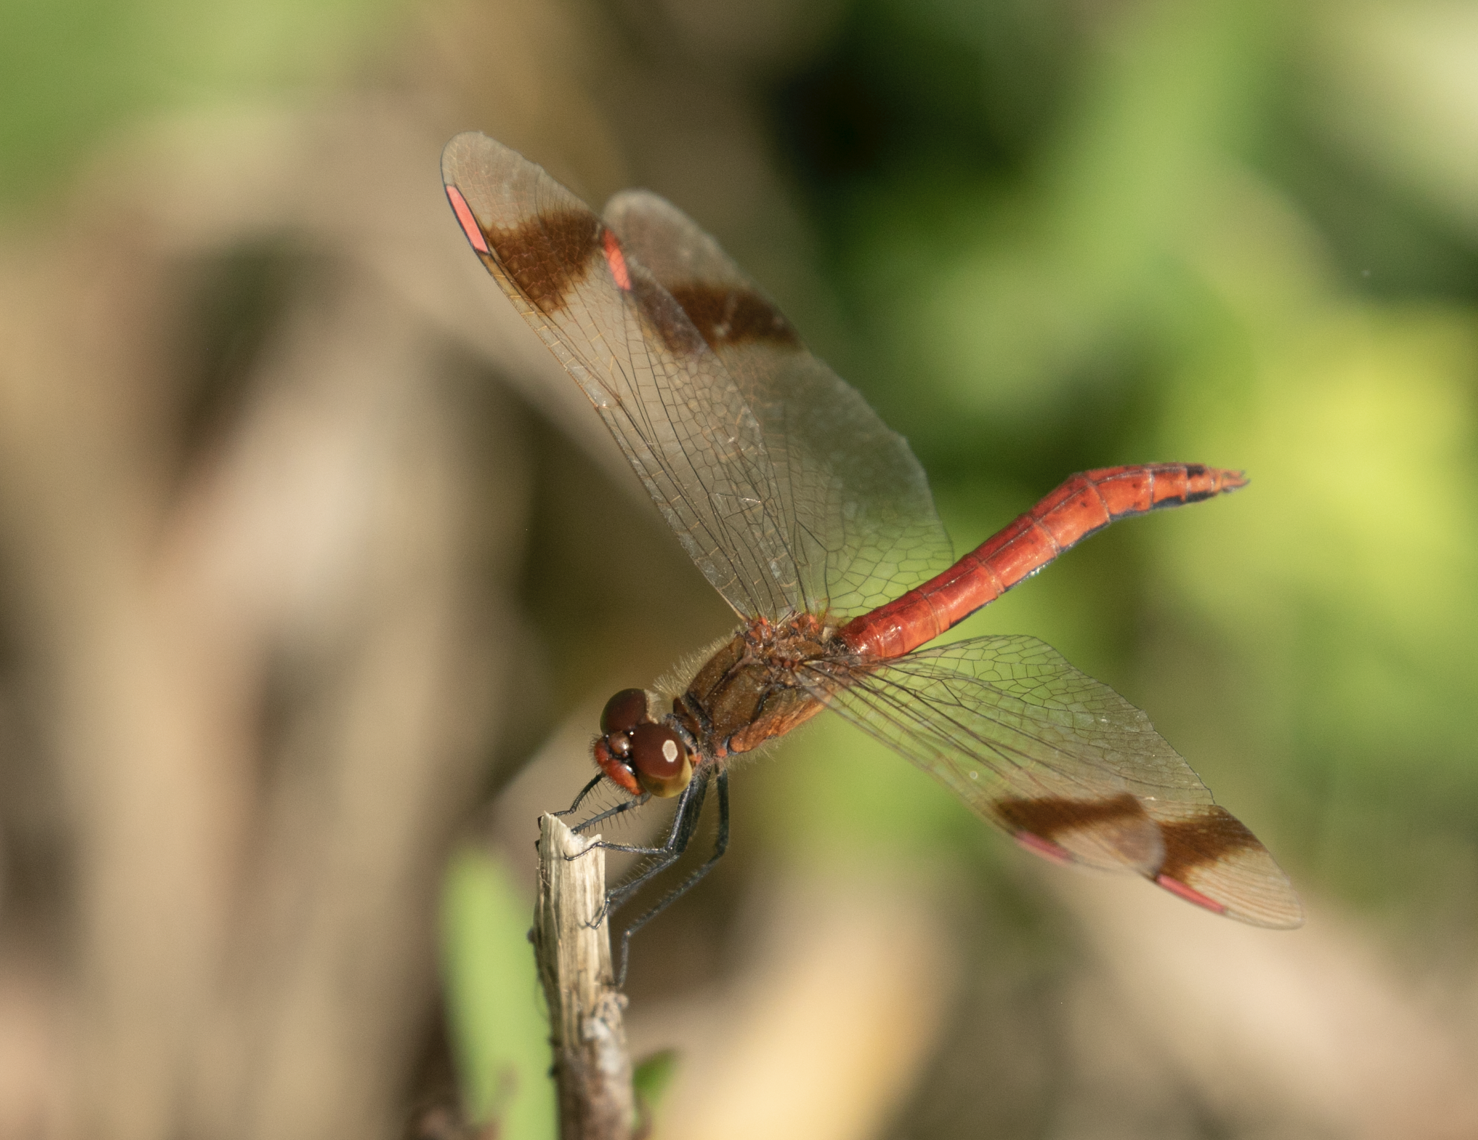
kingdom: Animalia
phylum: Arthropoda
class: Insecta
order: Odonata
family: Libellulidae
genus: Sympetrum
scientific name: Sympetrum pedemontanum
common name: Banded darter
